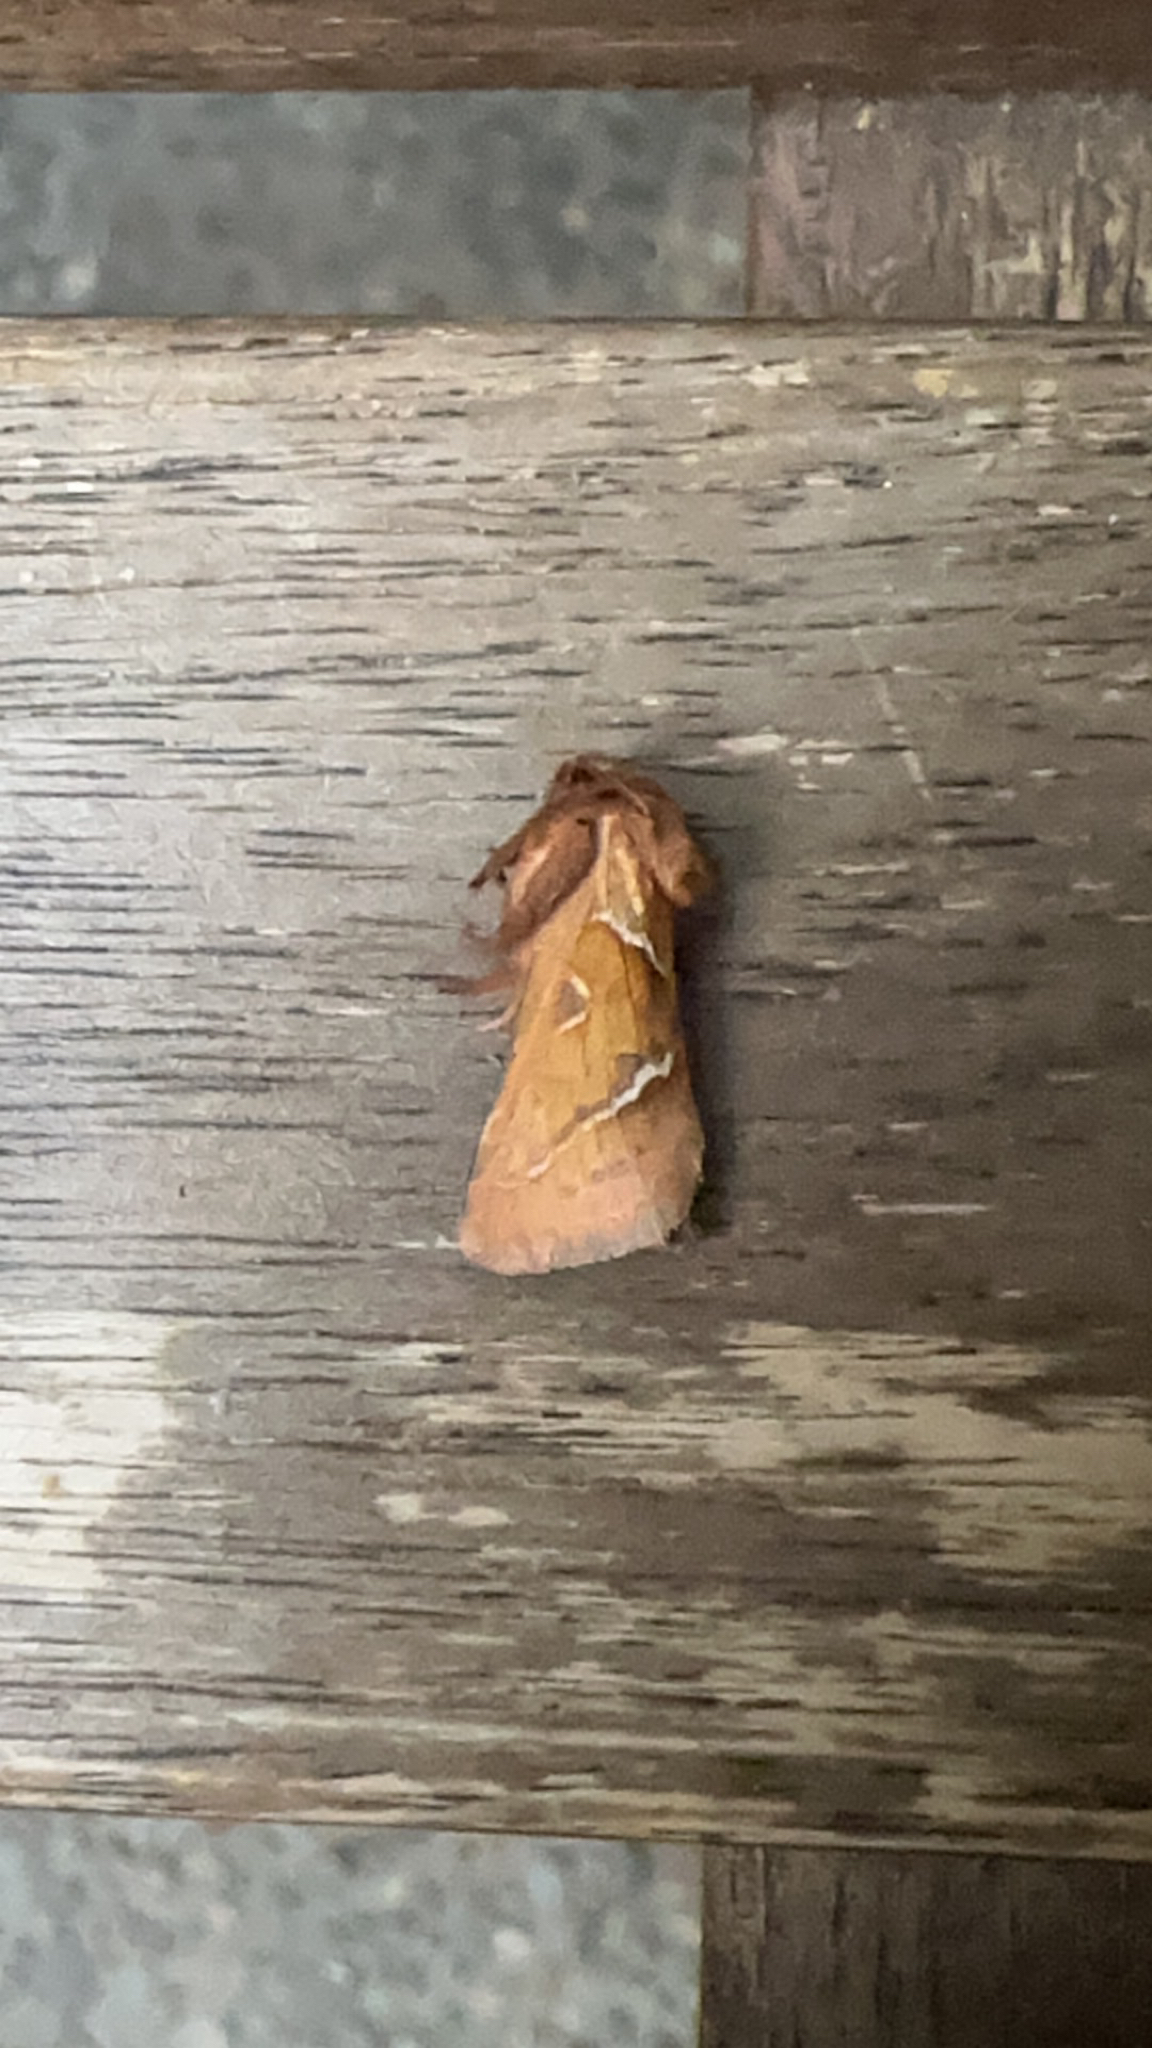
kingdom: Animalia
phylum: Arthropoda
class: Insecta
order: Lepidoptera
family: Hepialidae
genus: Triodia
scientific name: Triodia sylvina
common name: Orange swift
